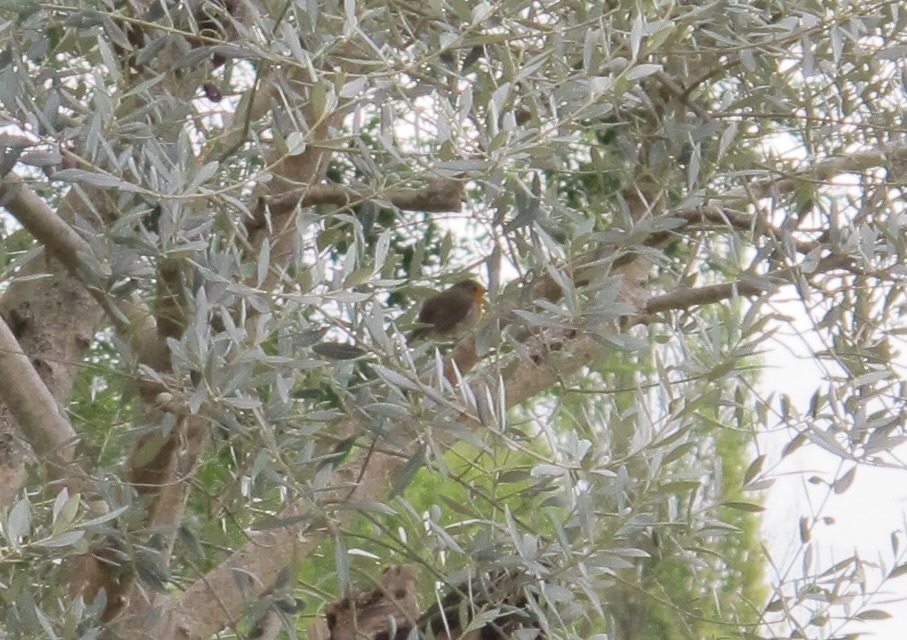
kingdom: Animalia
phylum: Chordata
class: Aves
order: Passeriformes
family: Muscicapidae
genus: Erithacus
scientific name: Erithacus rubecula
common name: European robin
